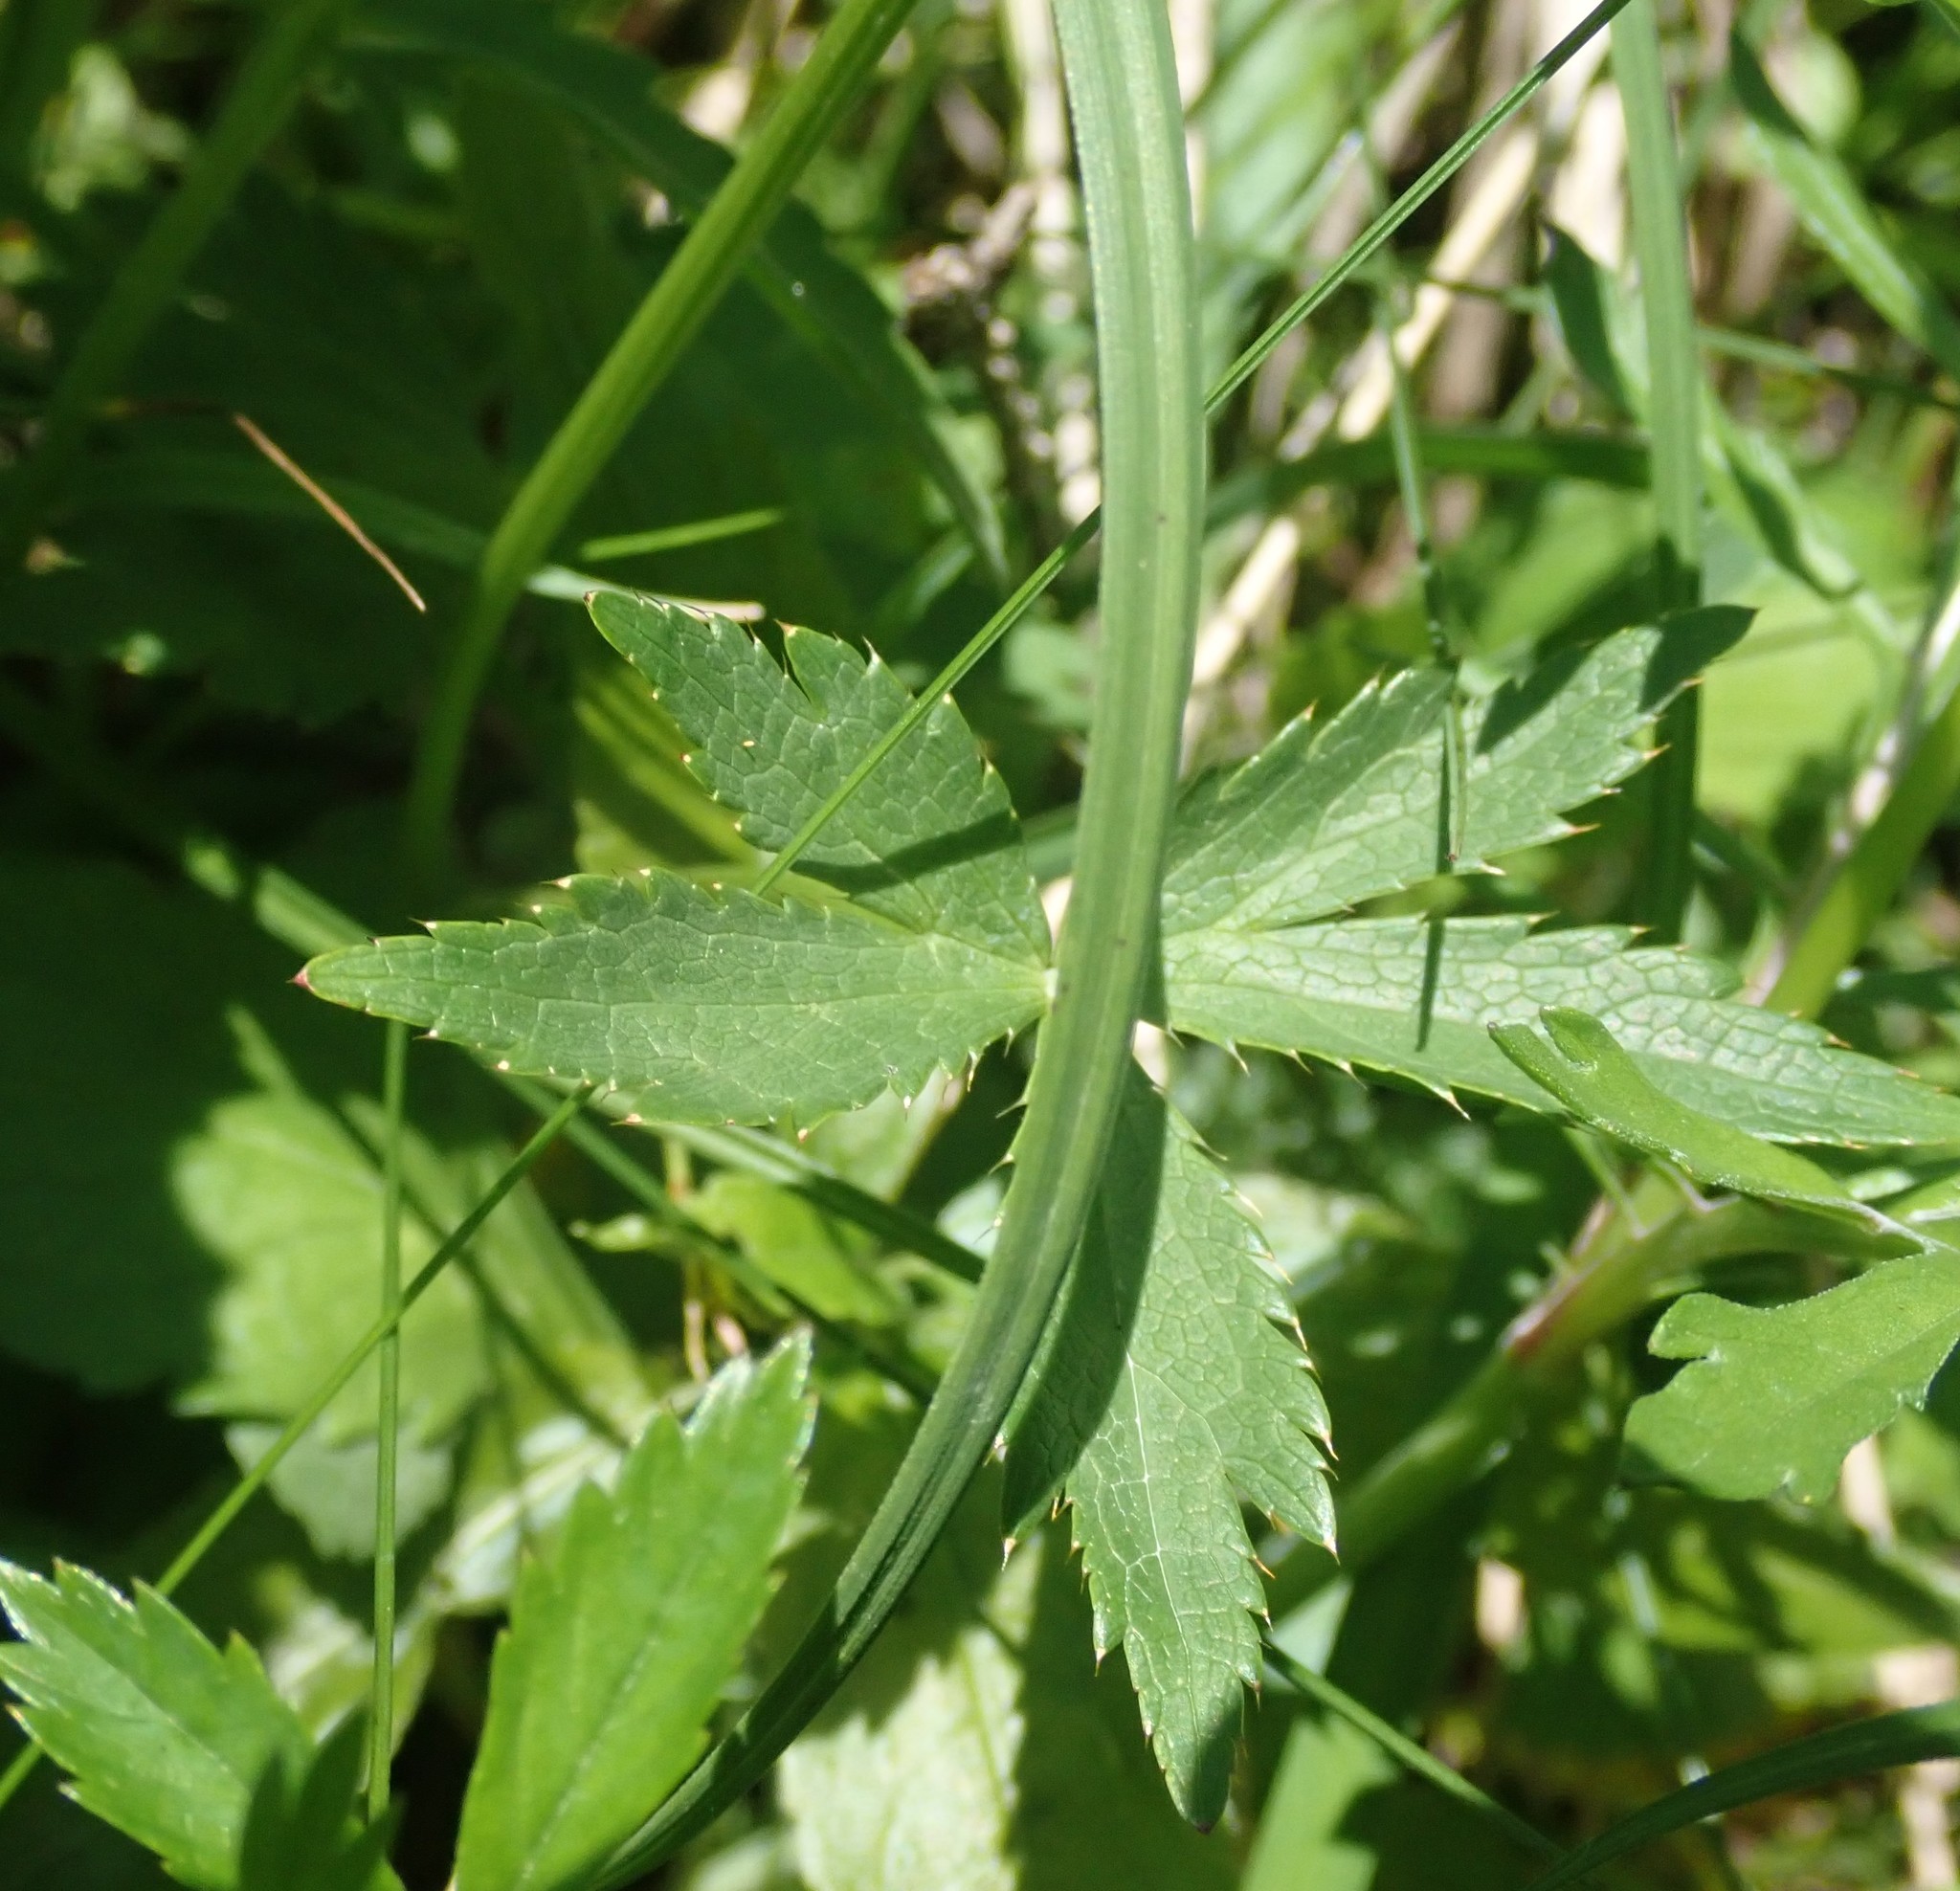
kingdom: Plantae
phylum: Tracheophyta
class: Magnoliopsida
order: Apiales
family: Apiaceae
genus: Astrantia
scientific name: Astrantia major
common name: Greater masterwort
